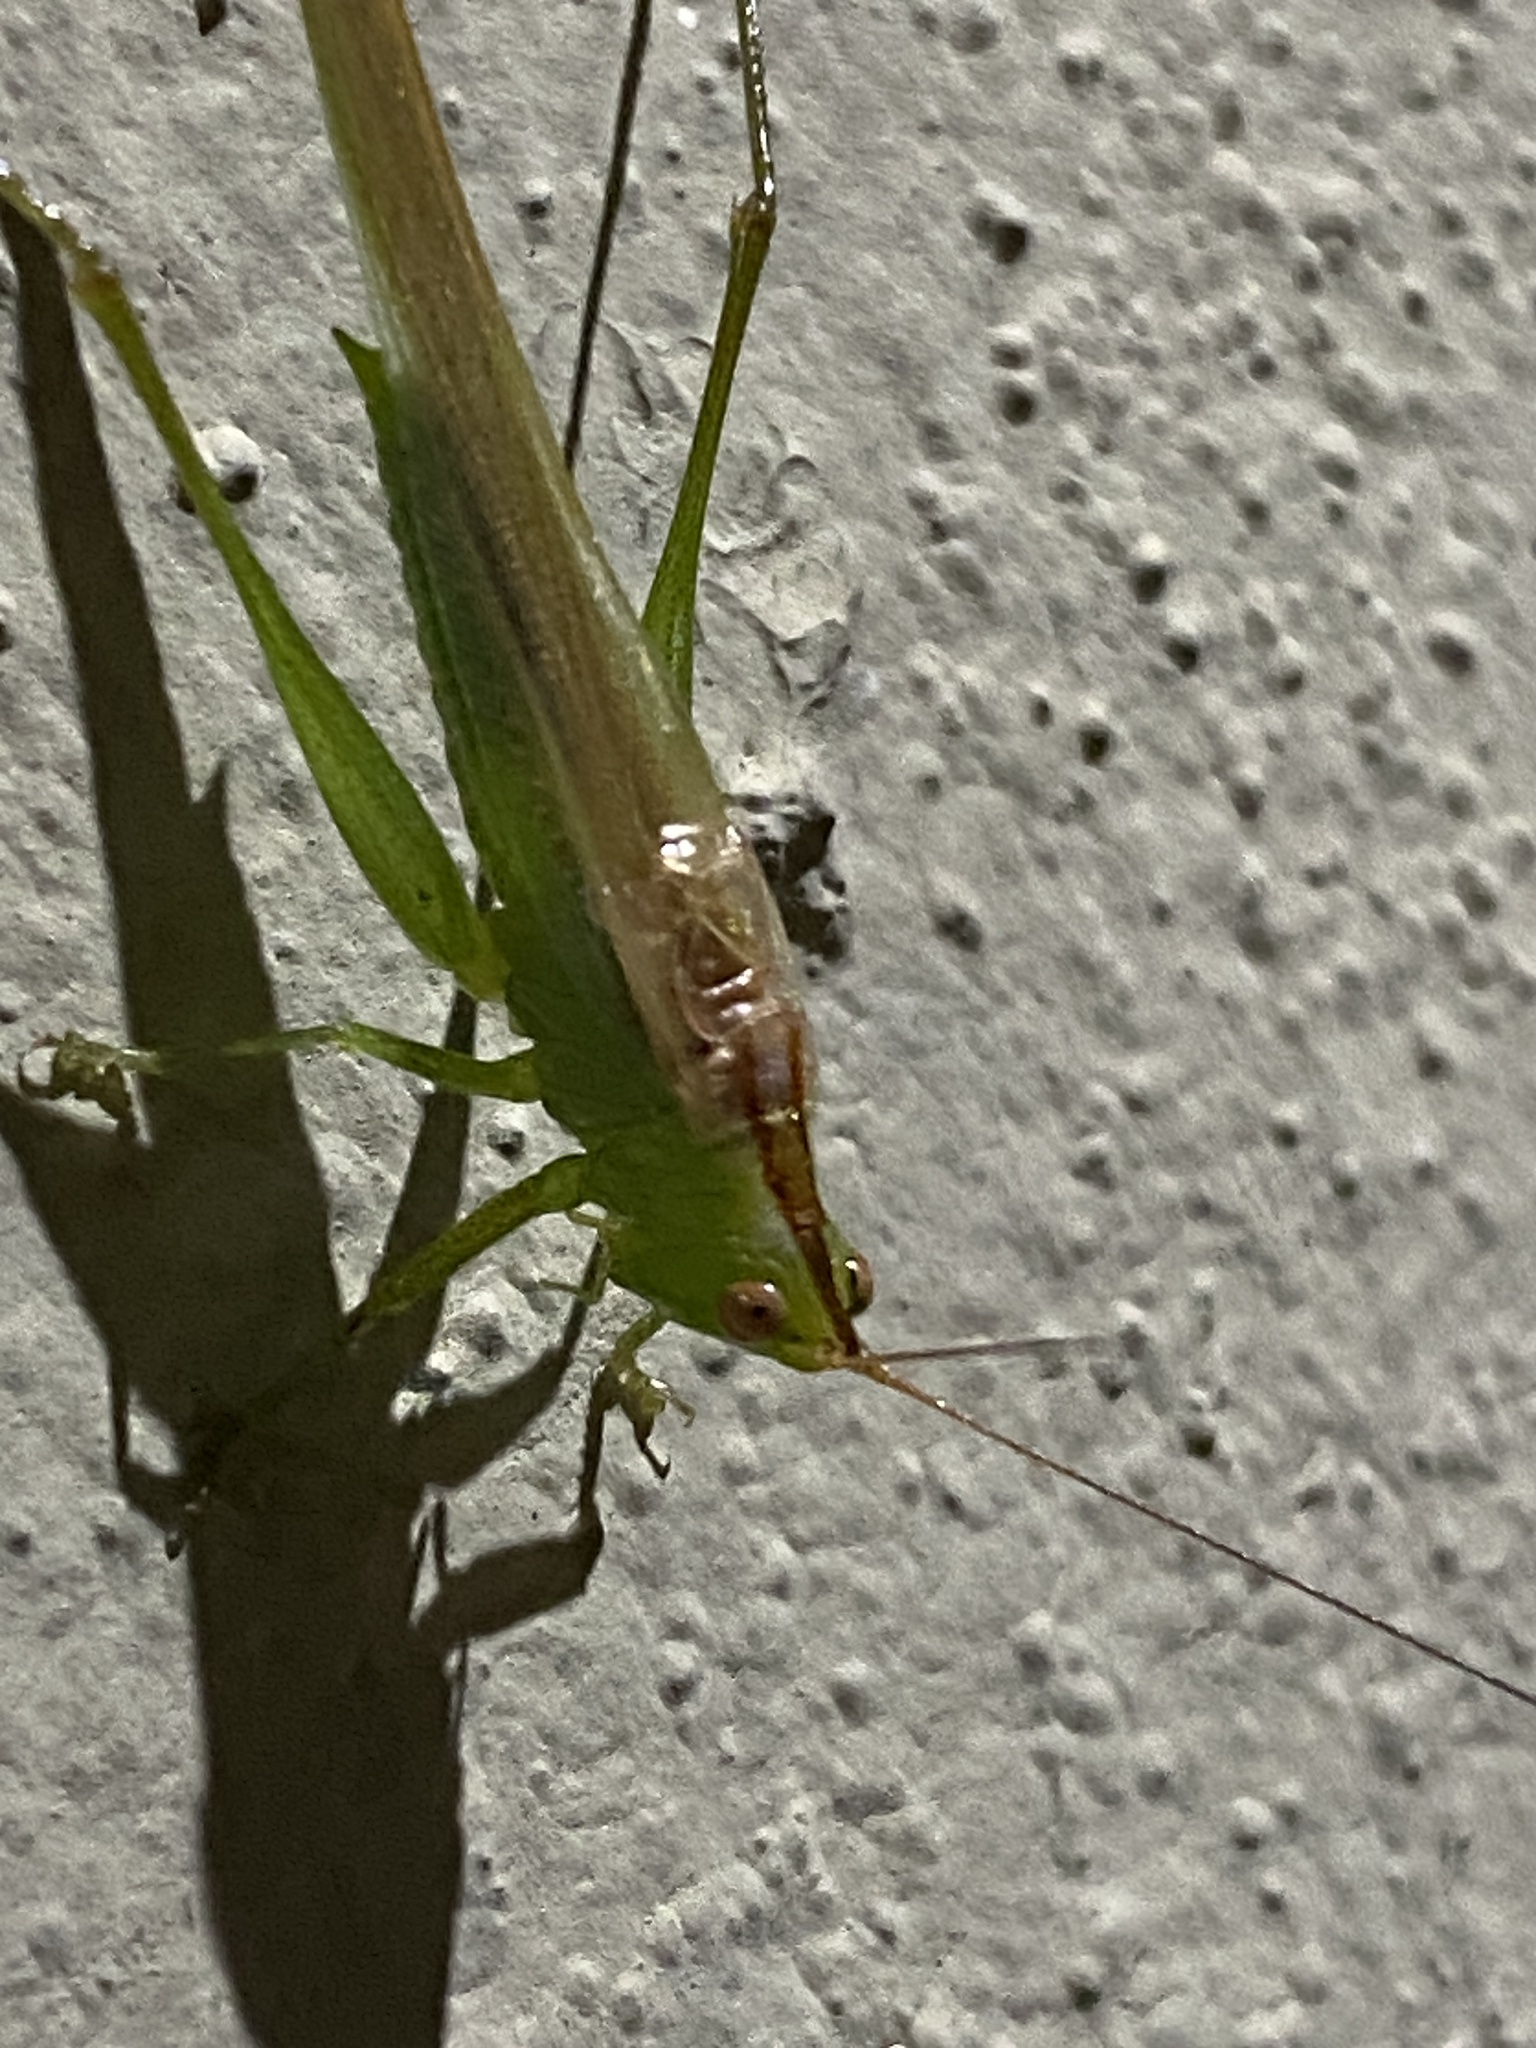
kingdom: Animalia
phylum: Arthropoda
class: Insecta
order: Orthoptera
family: Tettigoniidae
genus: Conocephalus
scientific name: Conocephalus longipes
